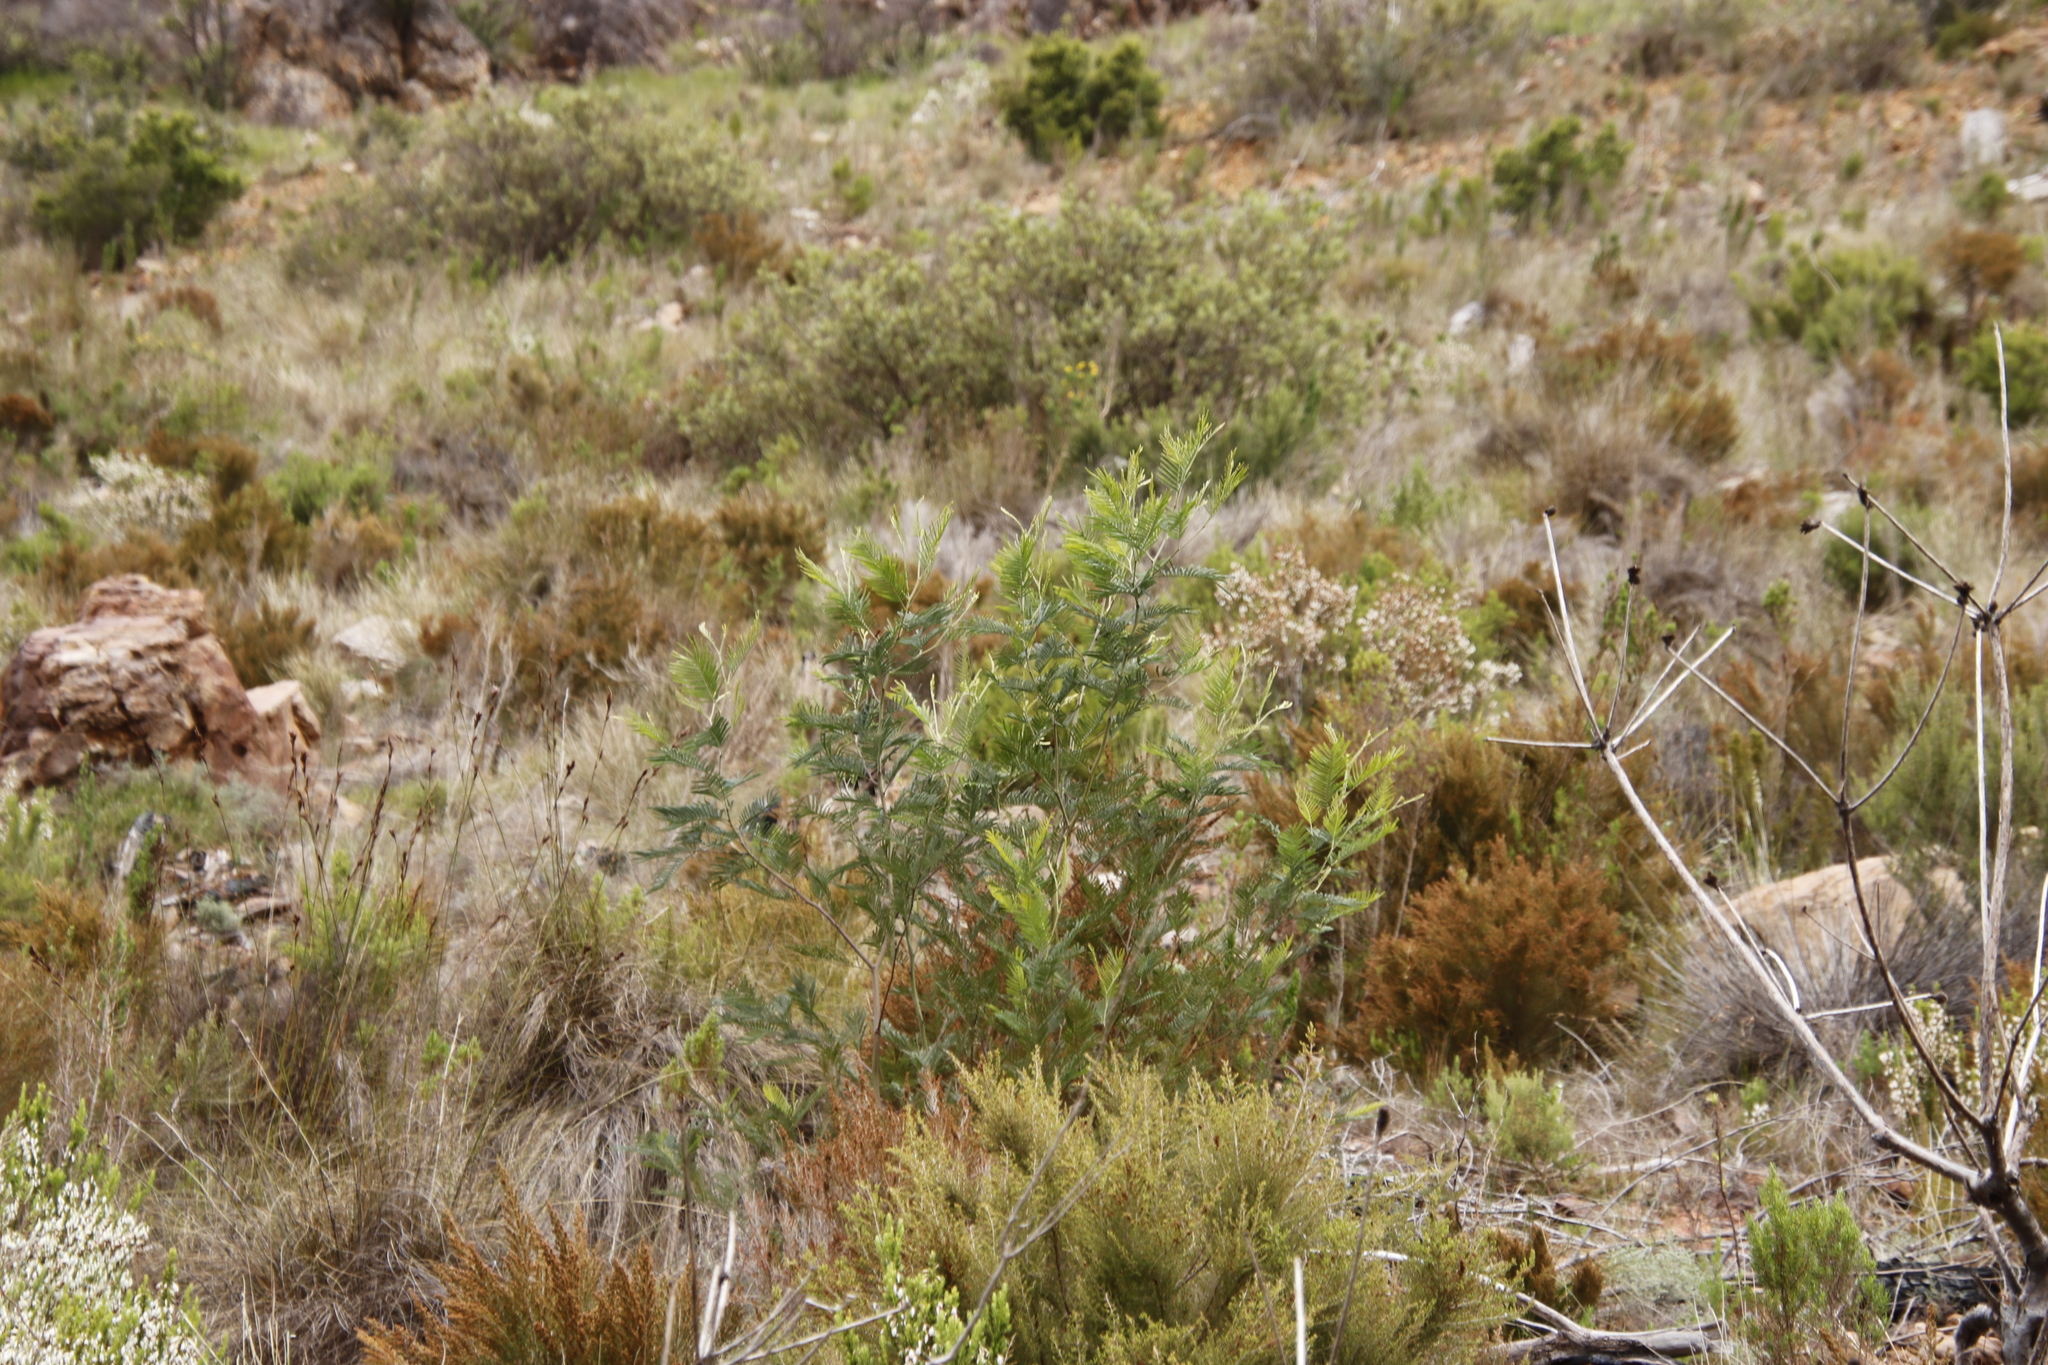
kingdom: Plantae
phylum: Tracheophyta
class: Magnoliopsida
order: Fabales
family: Fabaceae
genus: Acacia
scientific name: Acacia mearnsii
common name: Black wattle
